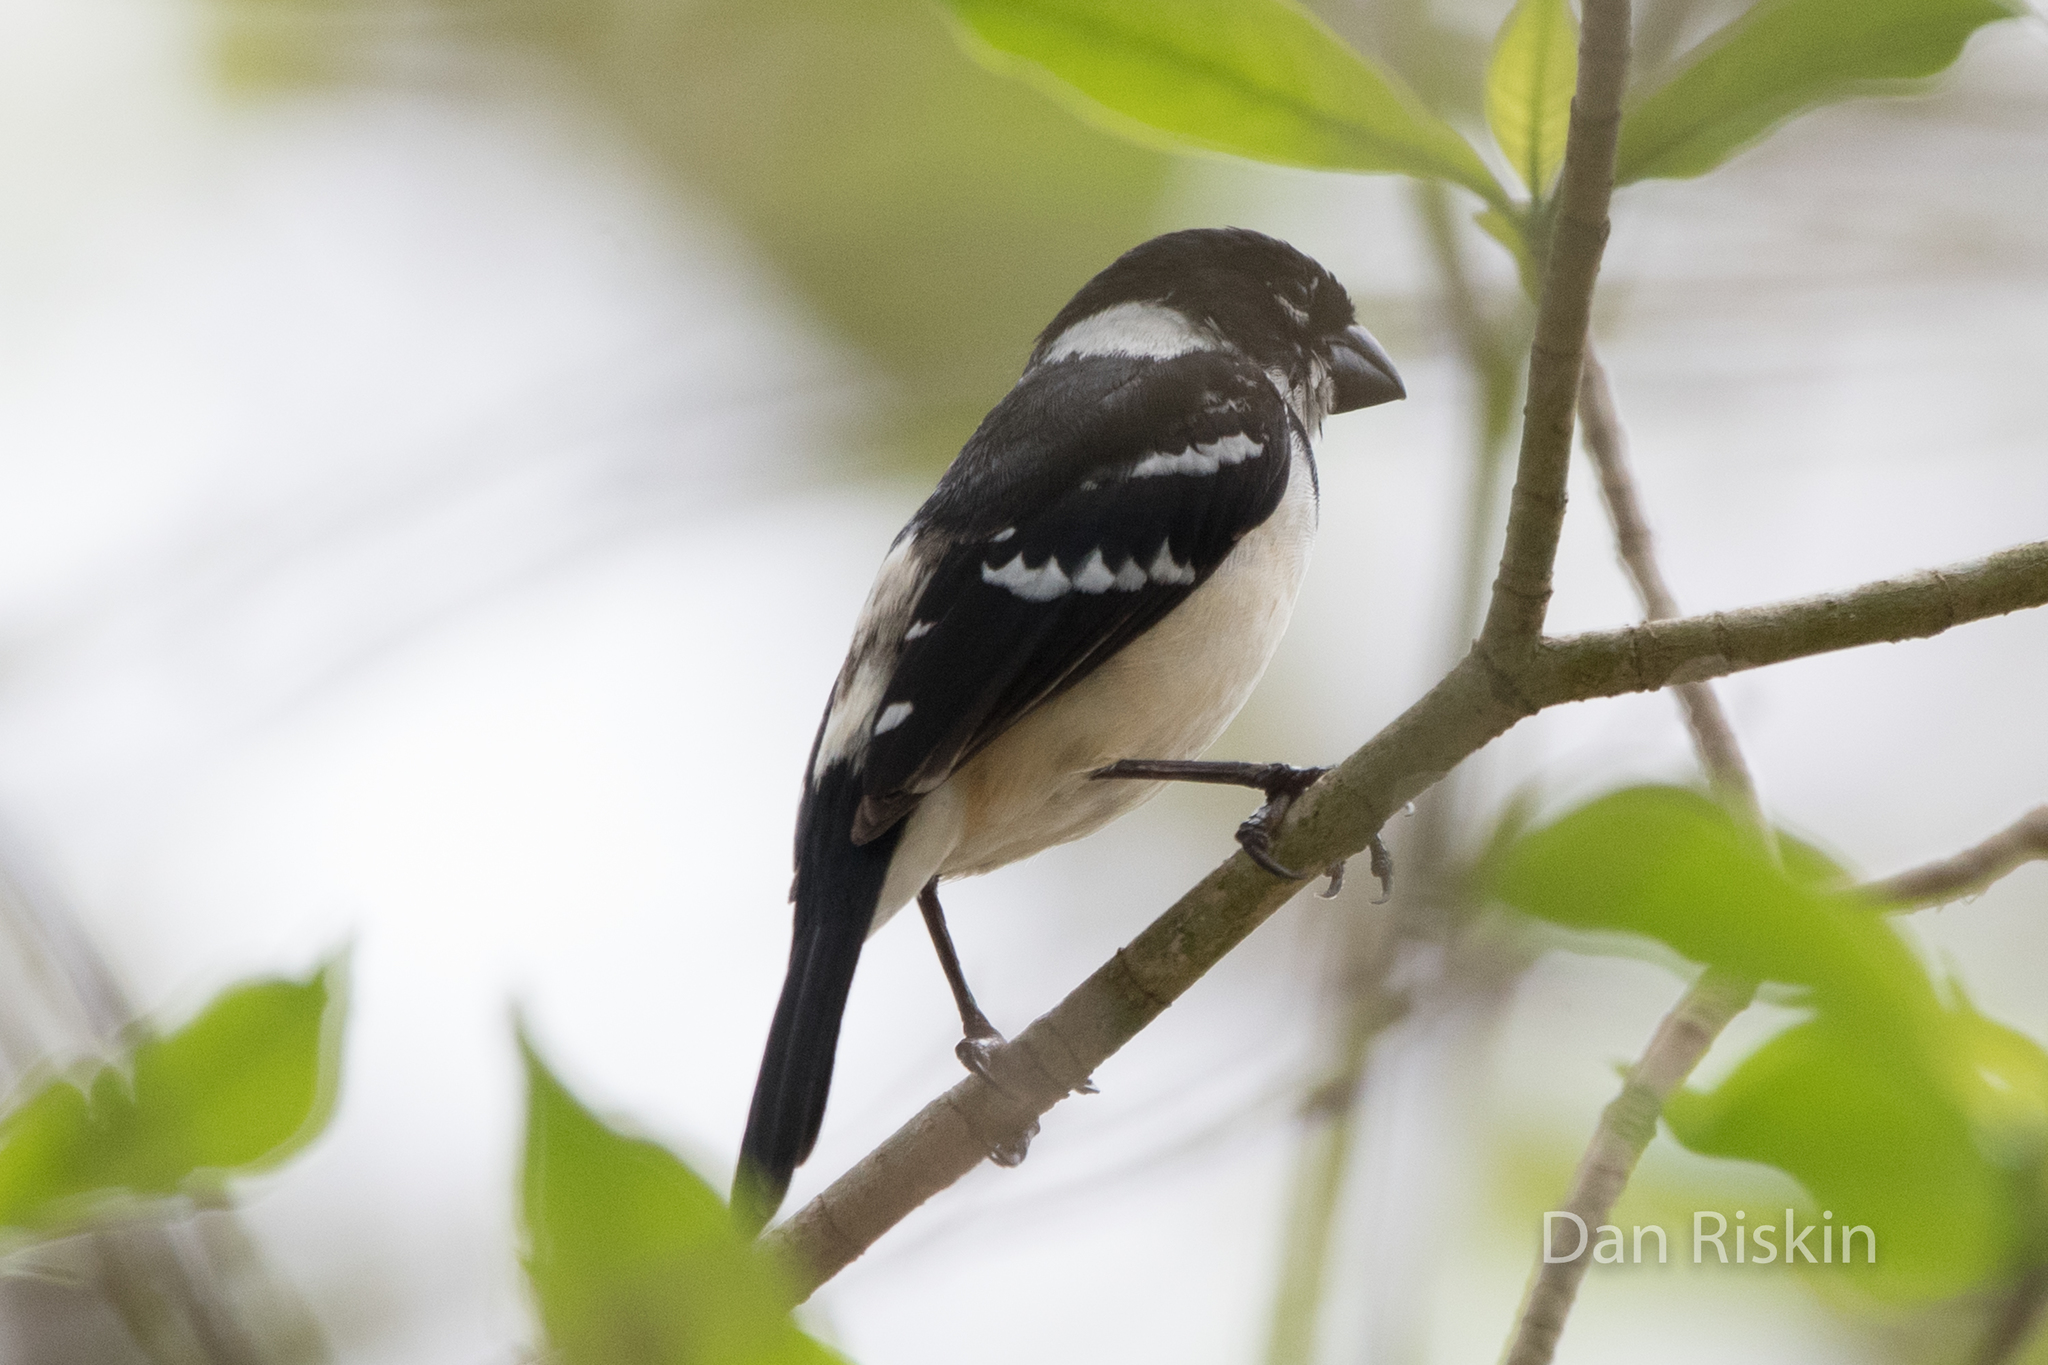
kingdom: Animalia
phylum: Chordata
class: Aves
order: Passeriformes
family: Thraupidae
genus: Sporophila
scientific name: Sporophila morelleti
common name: Morelet's seedeater
